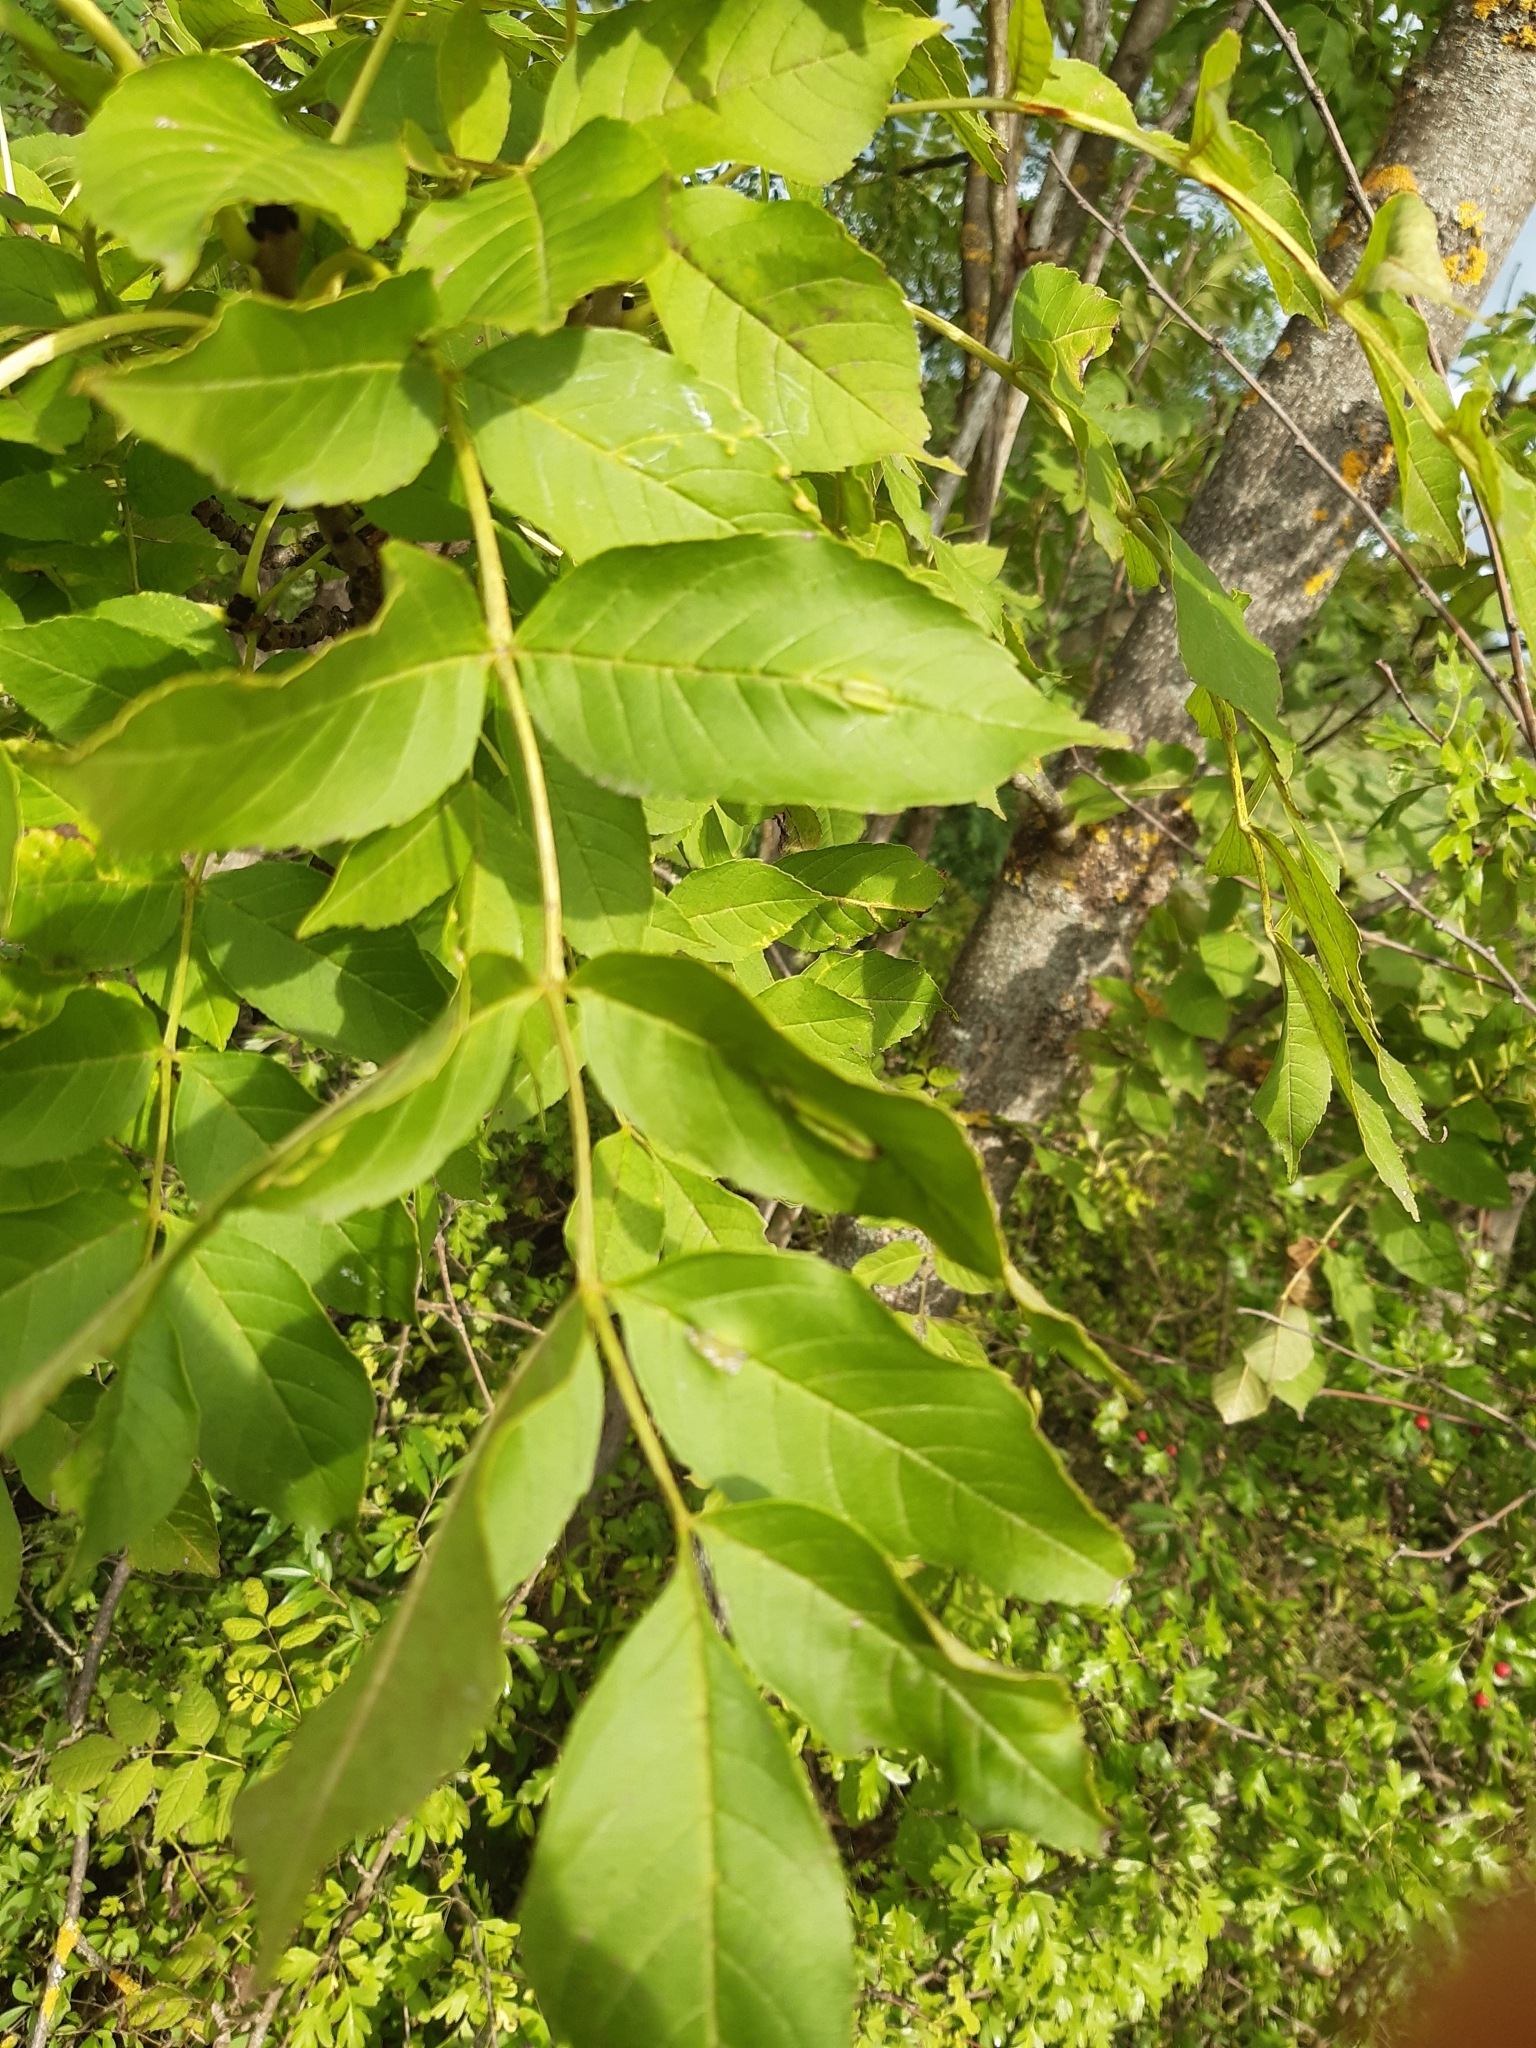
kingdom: Animalia
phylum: Arthropoda
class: Insecta
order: Diptera
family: Cecidomyiidae
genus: Dasineura
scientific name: Dasineura fraxini
